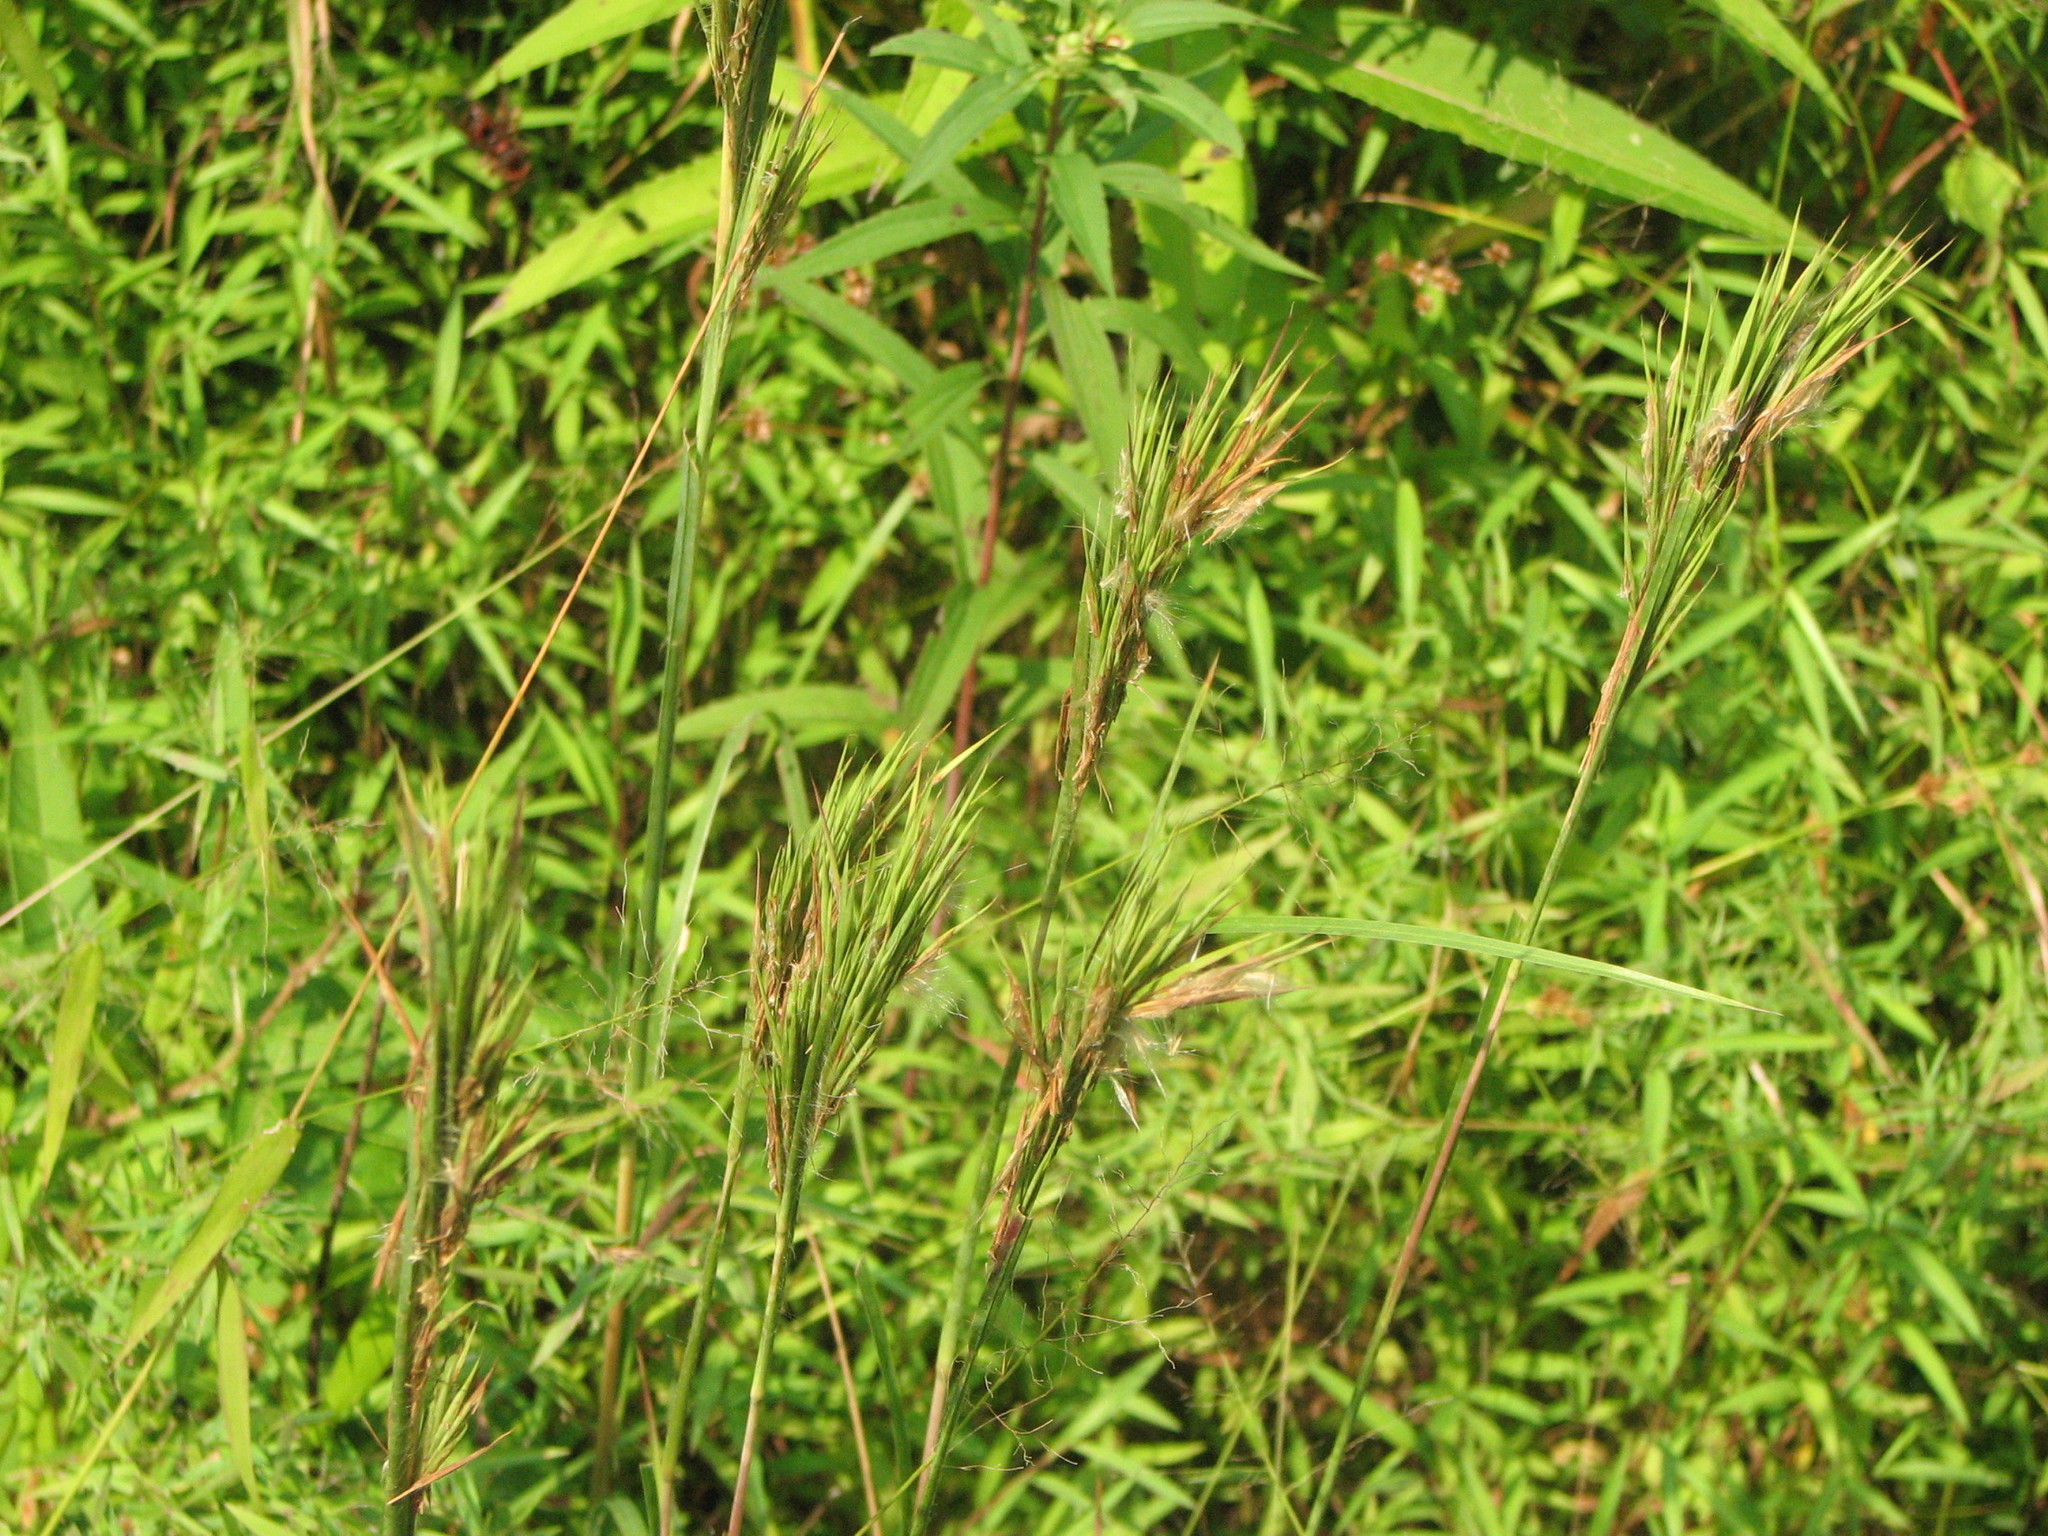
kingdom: Plantae
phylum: Tracheophyta
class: Liliopsida
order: Poales
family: Poaceae
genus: Andropogon
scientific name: Andropogon glomeratus
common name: Bushy beard grass
